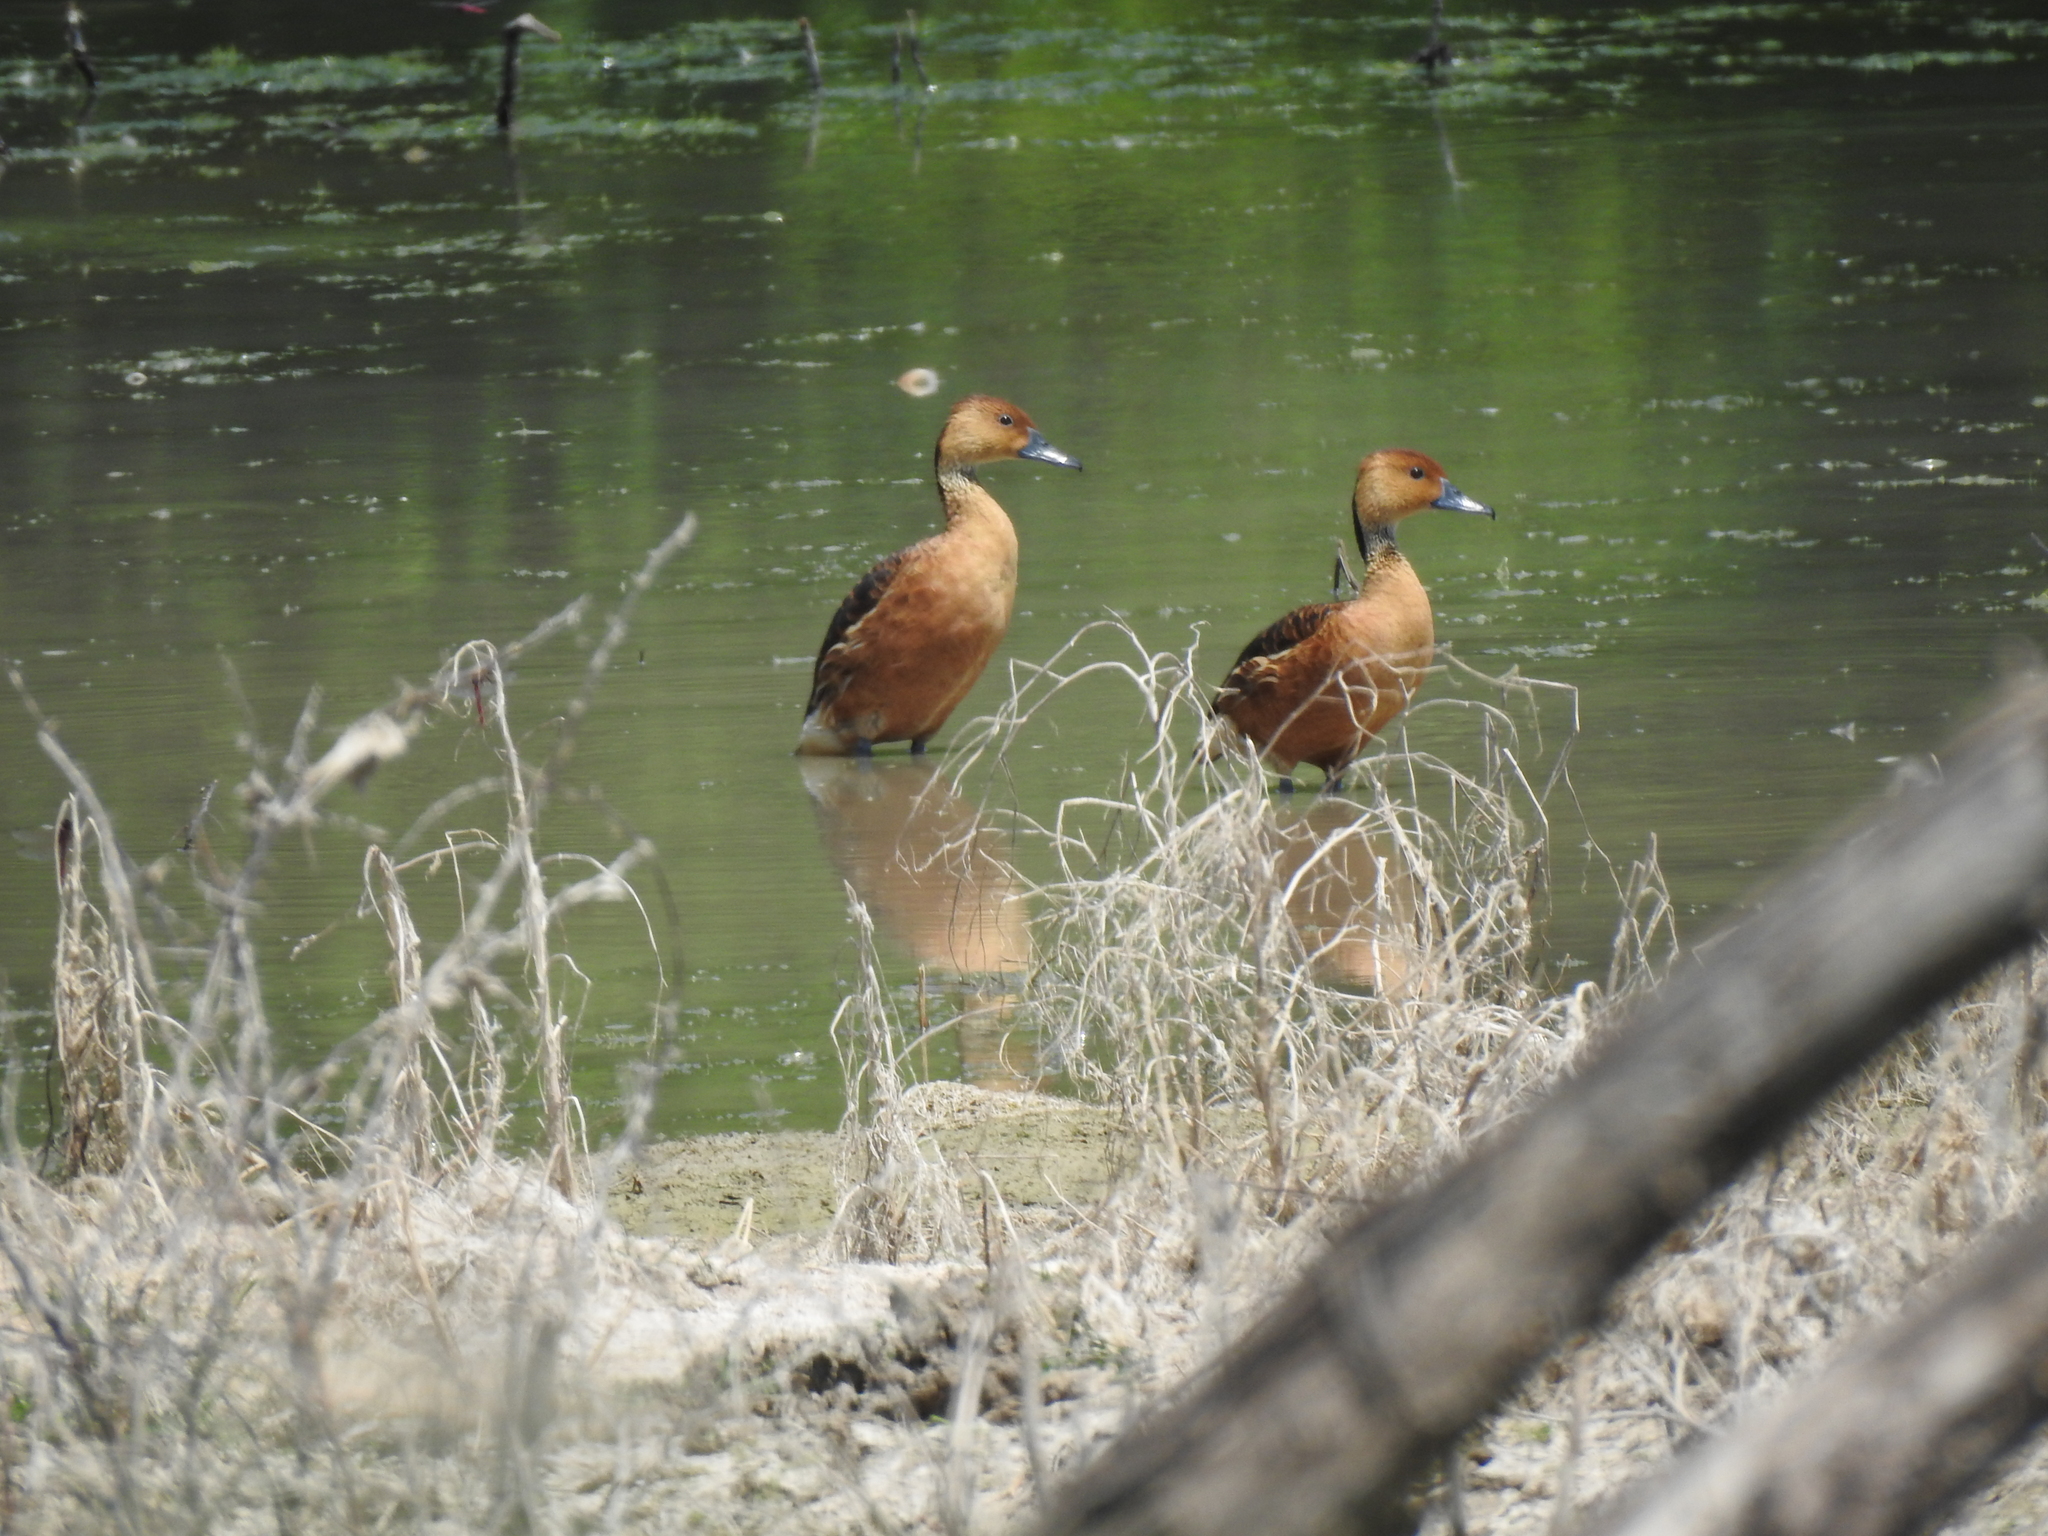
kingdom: Animalia
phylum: Chordata
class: Aves
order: Anseriformes
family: Anatidae
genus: Dendrocygna
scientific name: Dendrocygna bicolor
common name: Fulvous whistling duck
